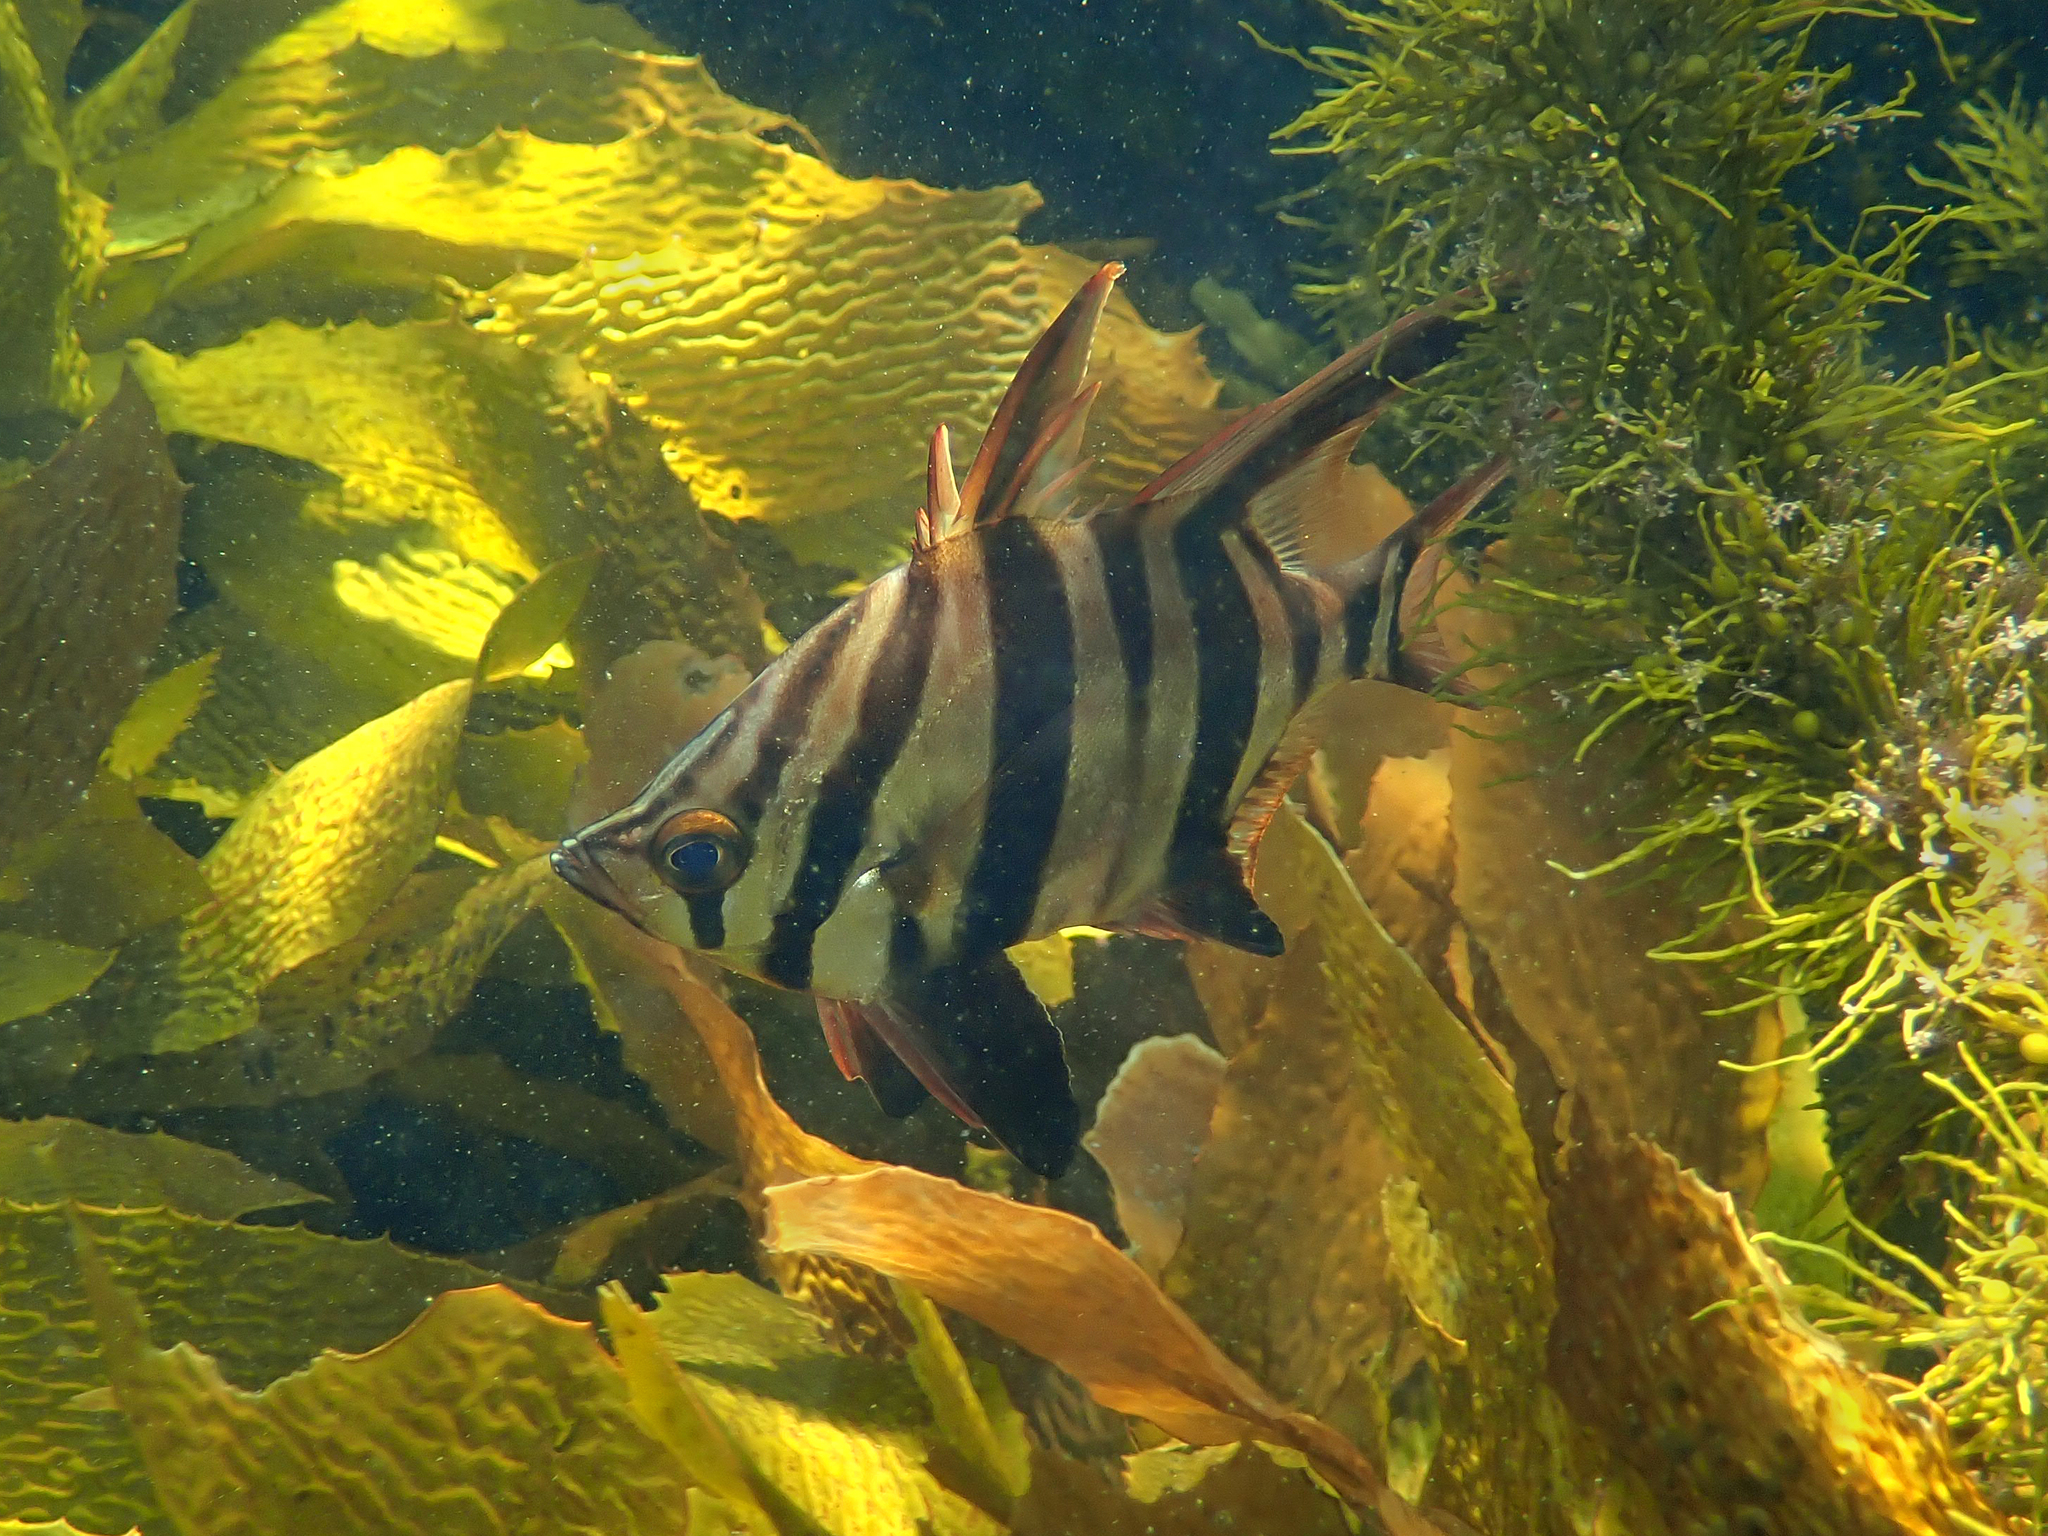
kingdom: Animalia
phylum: Chordata
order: Perciformes
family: Enoplosidae
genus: Enoplosus
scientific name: Enoplosus armatus
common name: Old wife
